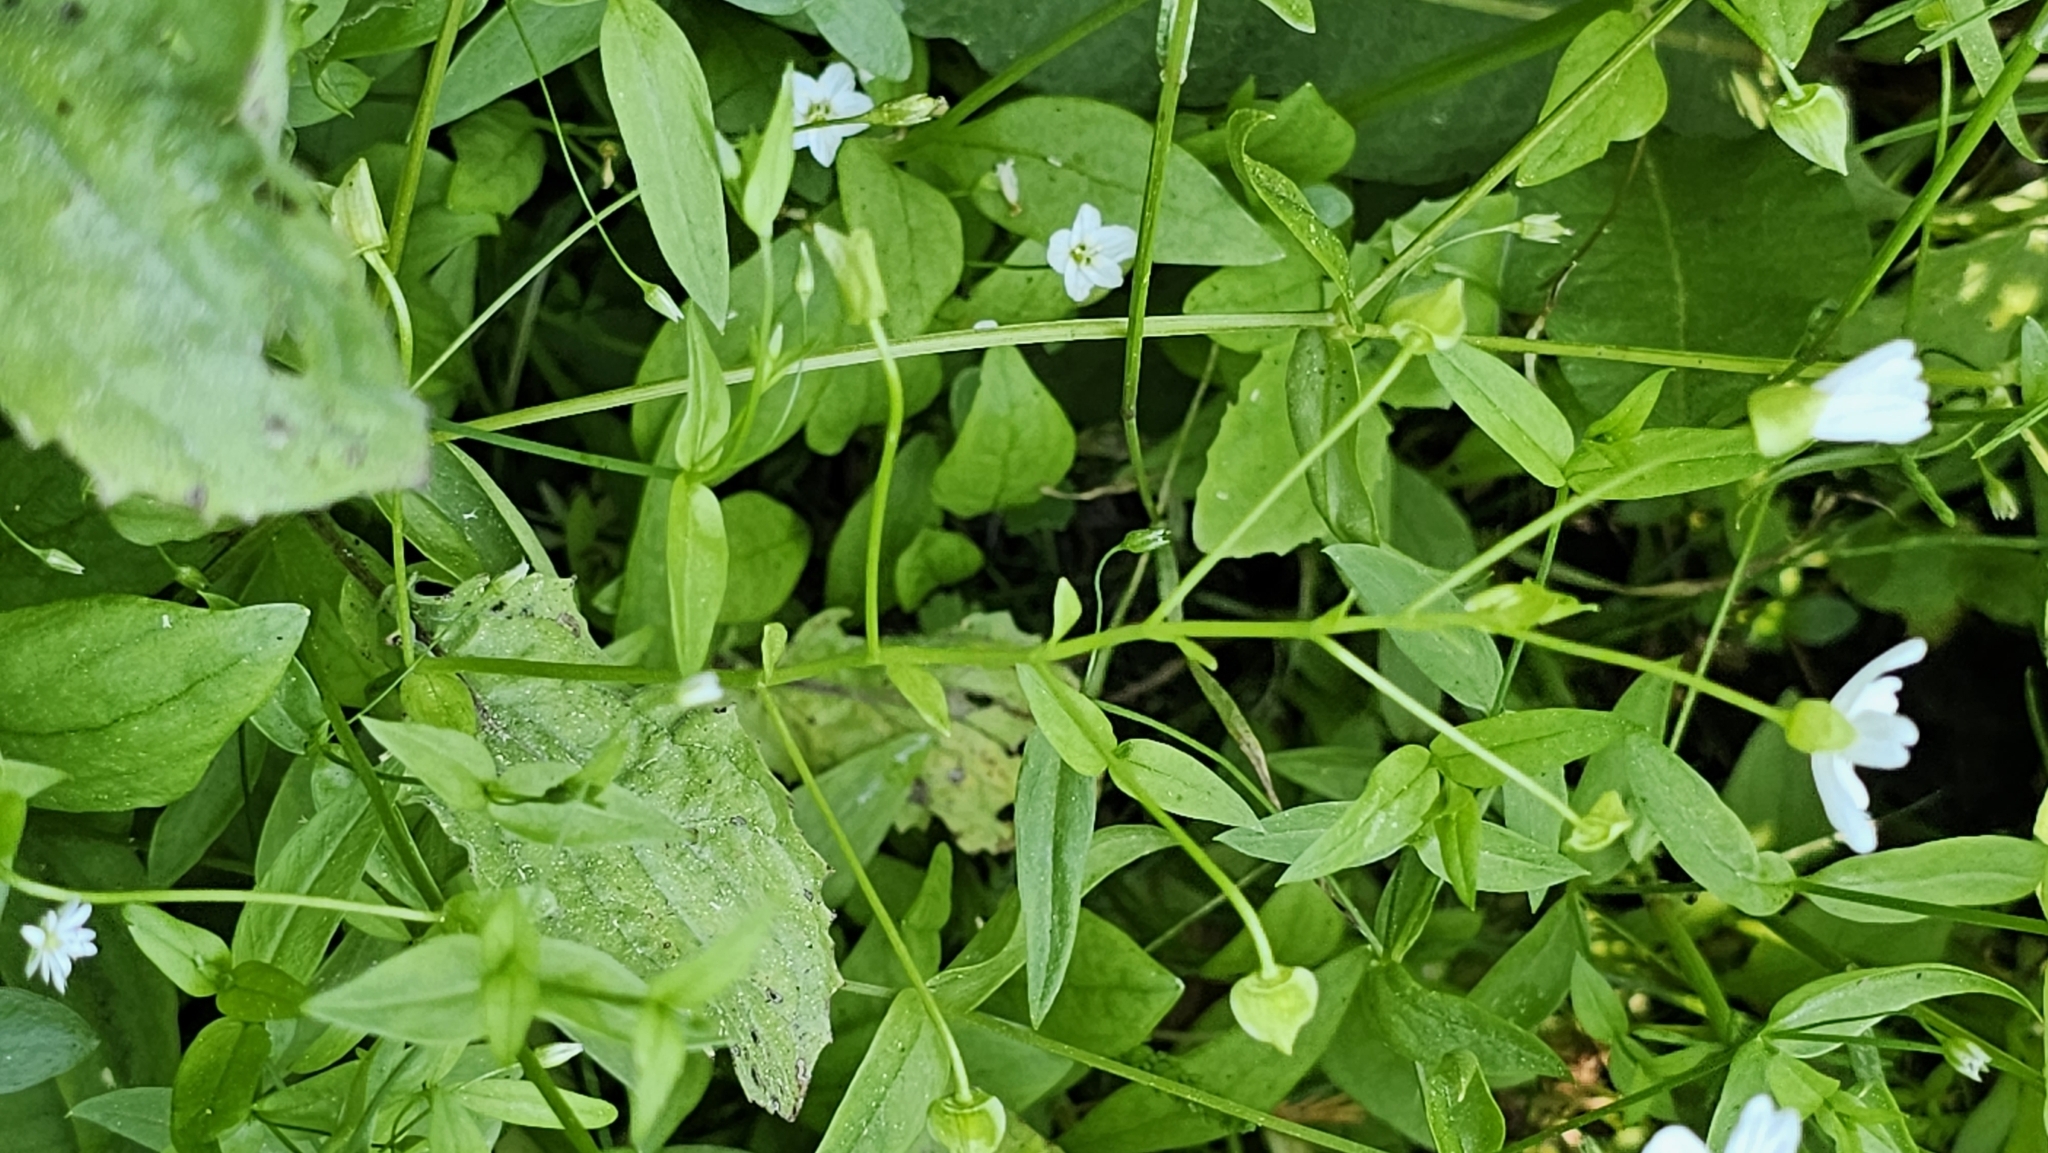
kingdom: Plantae
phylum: Tracheophyta
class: Magnoliopsida
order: Caryophyllales
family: Montiaceae
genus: Claytonia
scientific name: Claytonia palustris
